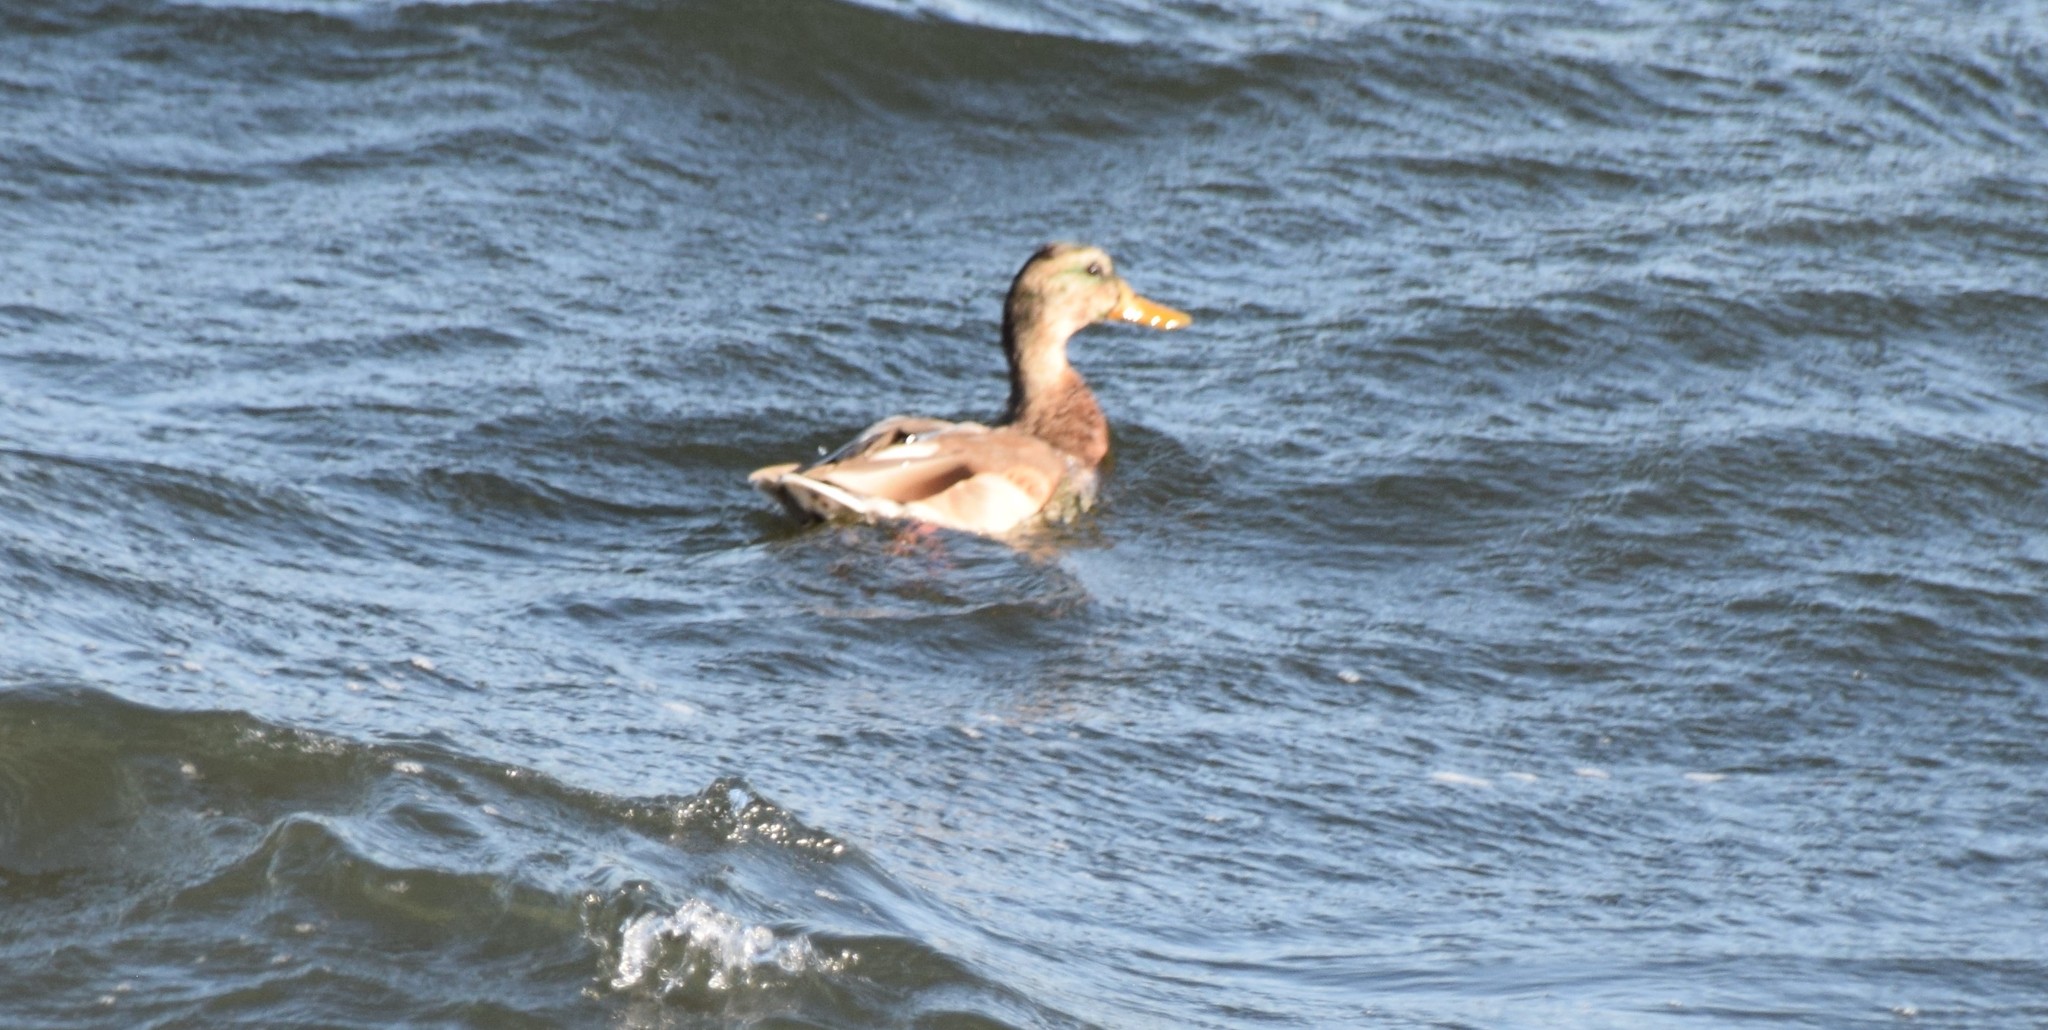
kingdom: Animalia
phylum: Chordata
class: Aves
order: Anseriformes
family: Anatidae
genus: Anas
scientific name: Anas platyrhynchos
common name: Mallard
